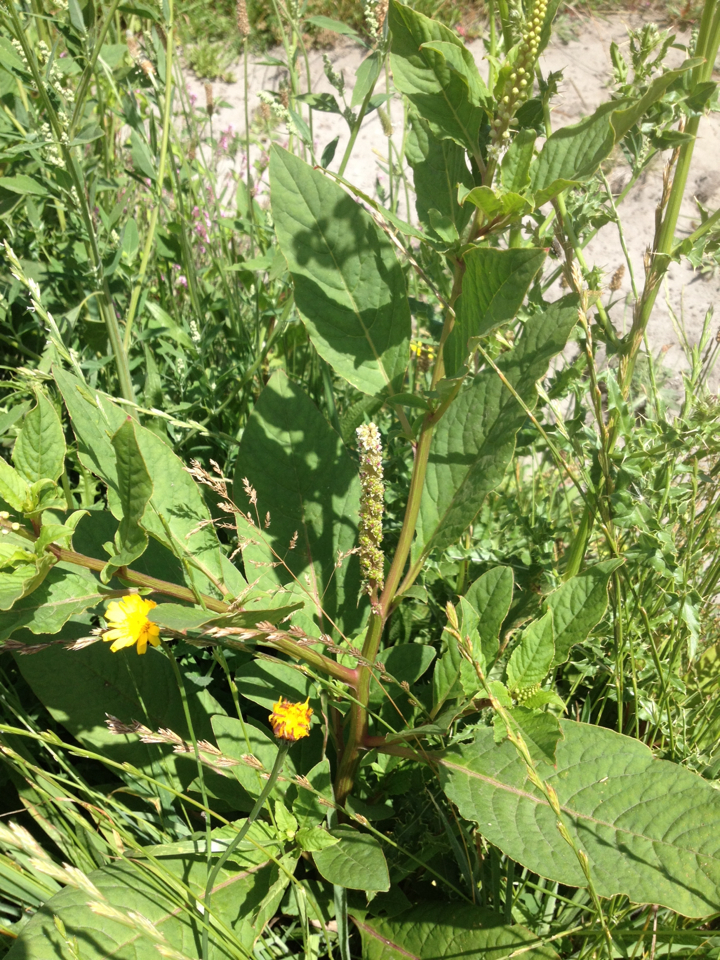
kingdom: Plantae
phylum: Tracheophyta
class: Magnoliopsida
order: Caryophyllales
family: Phytolaccaceae
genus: Phytolacca
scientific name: Phytolacca icosandra
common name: Button pokeweed
